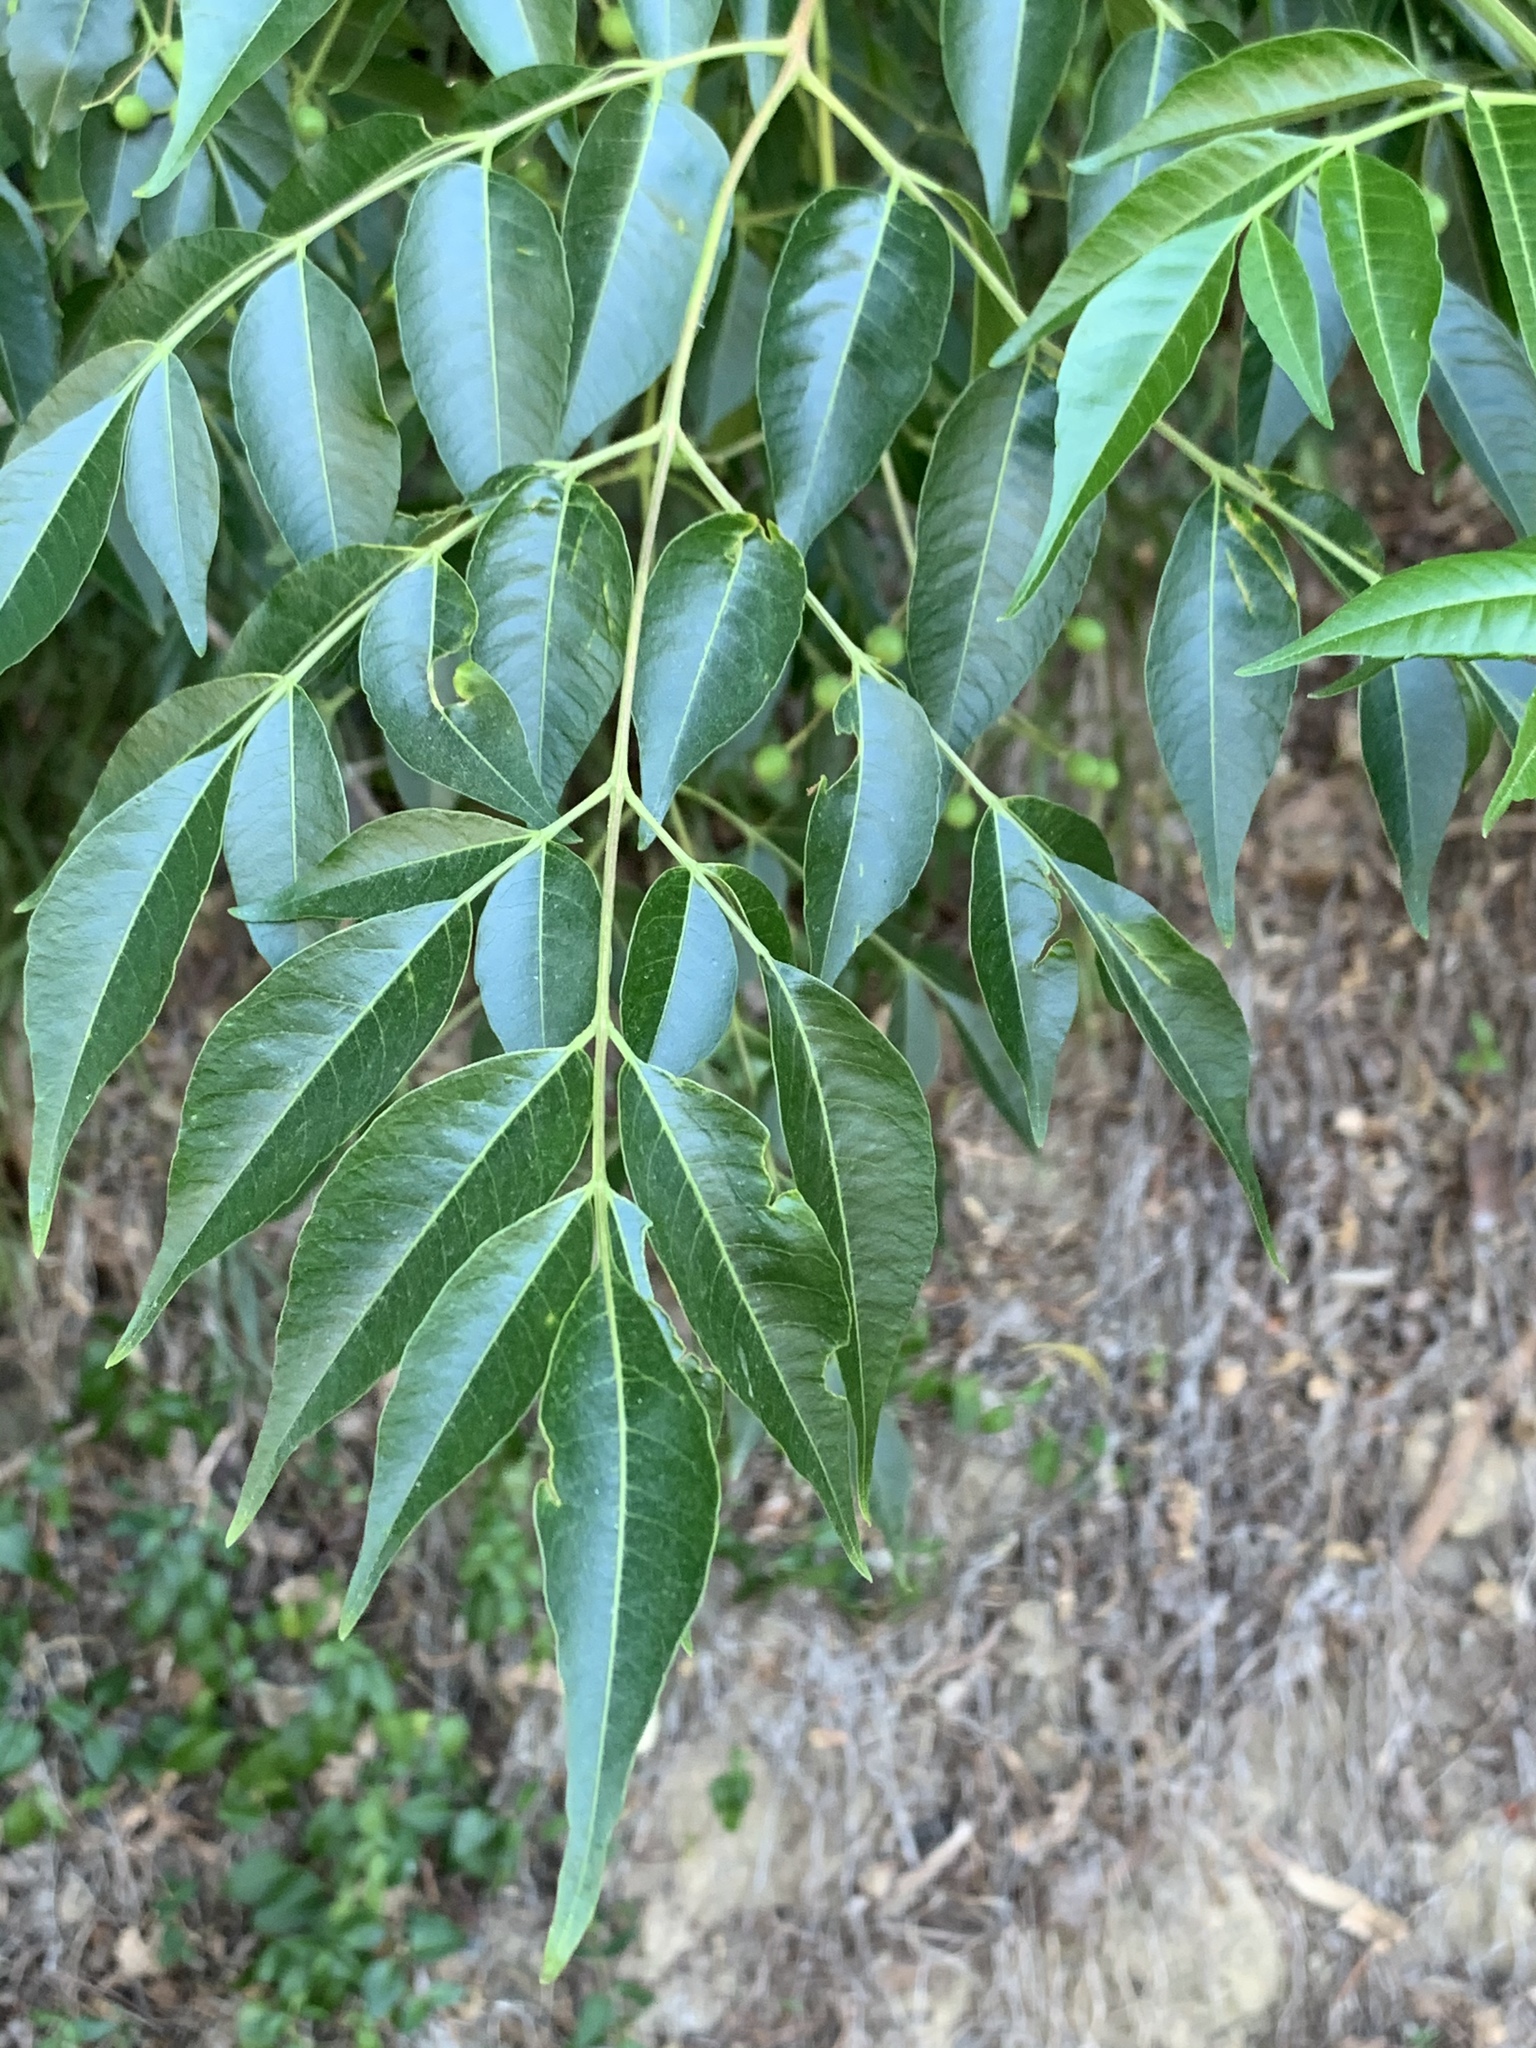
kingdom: Plantae
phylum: Tracheophyta
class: Magnoliopsida
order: Sapindales
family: Meliaceae
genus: Melia
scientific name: Melia azedarach
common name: Chinaberrytree
